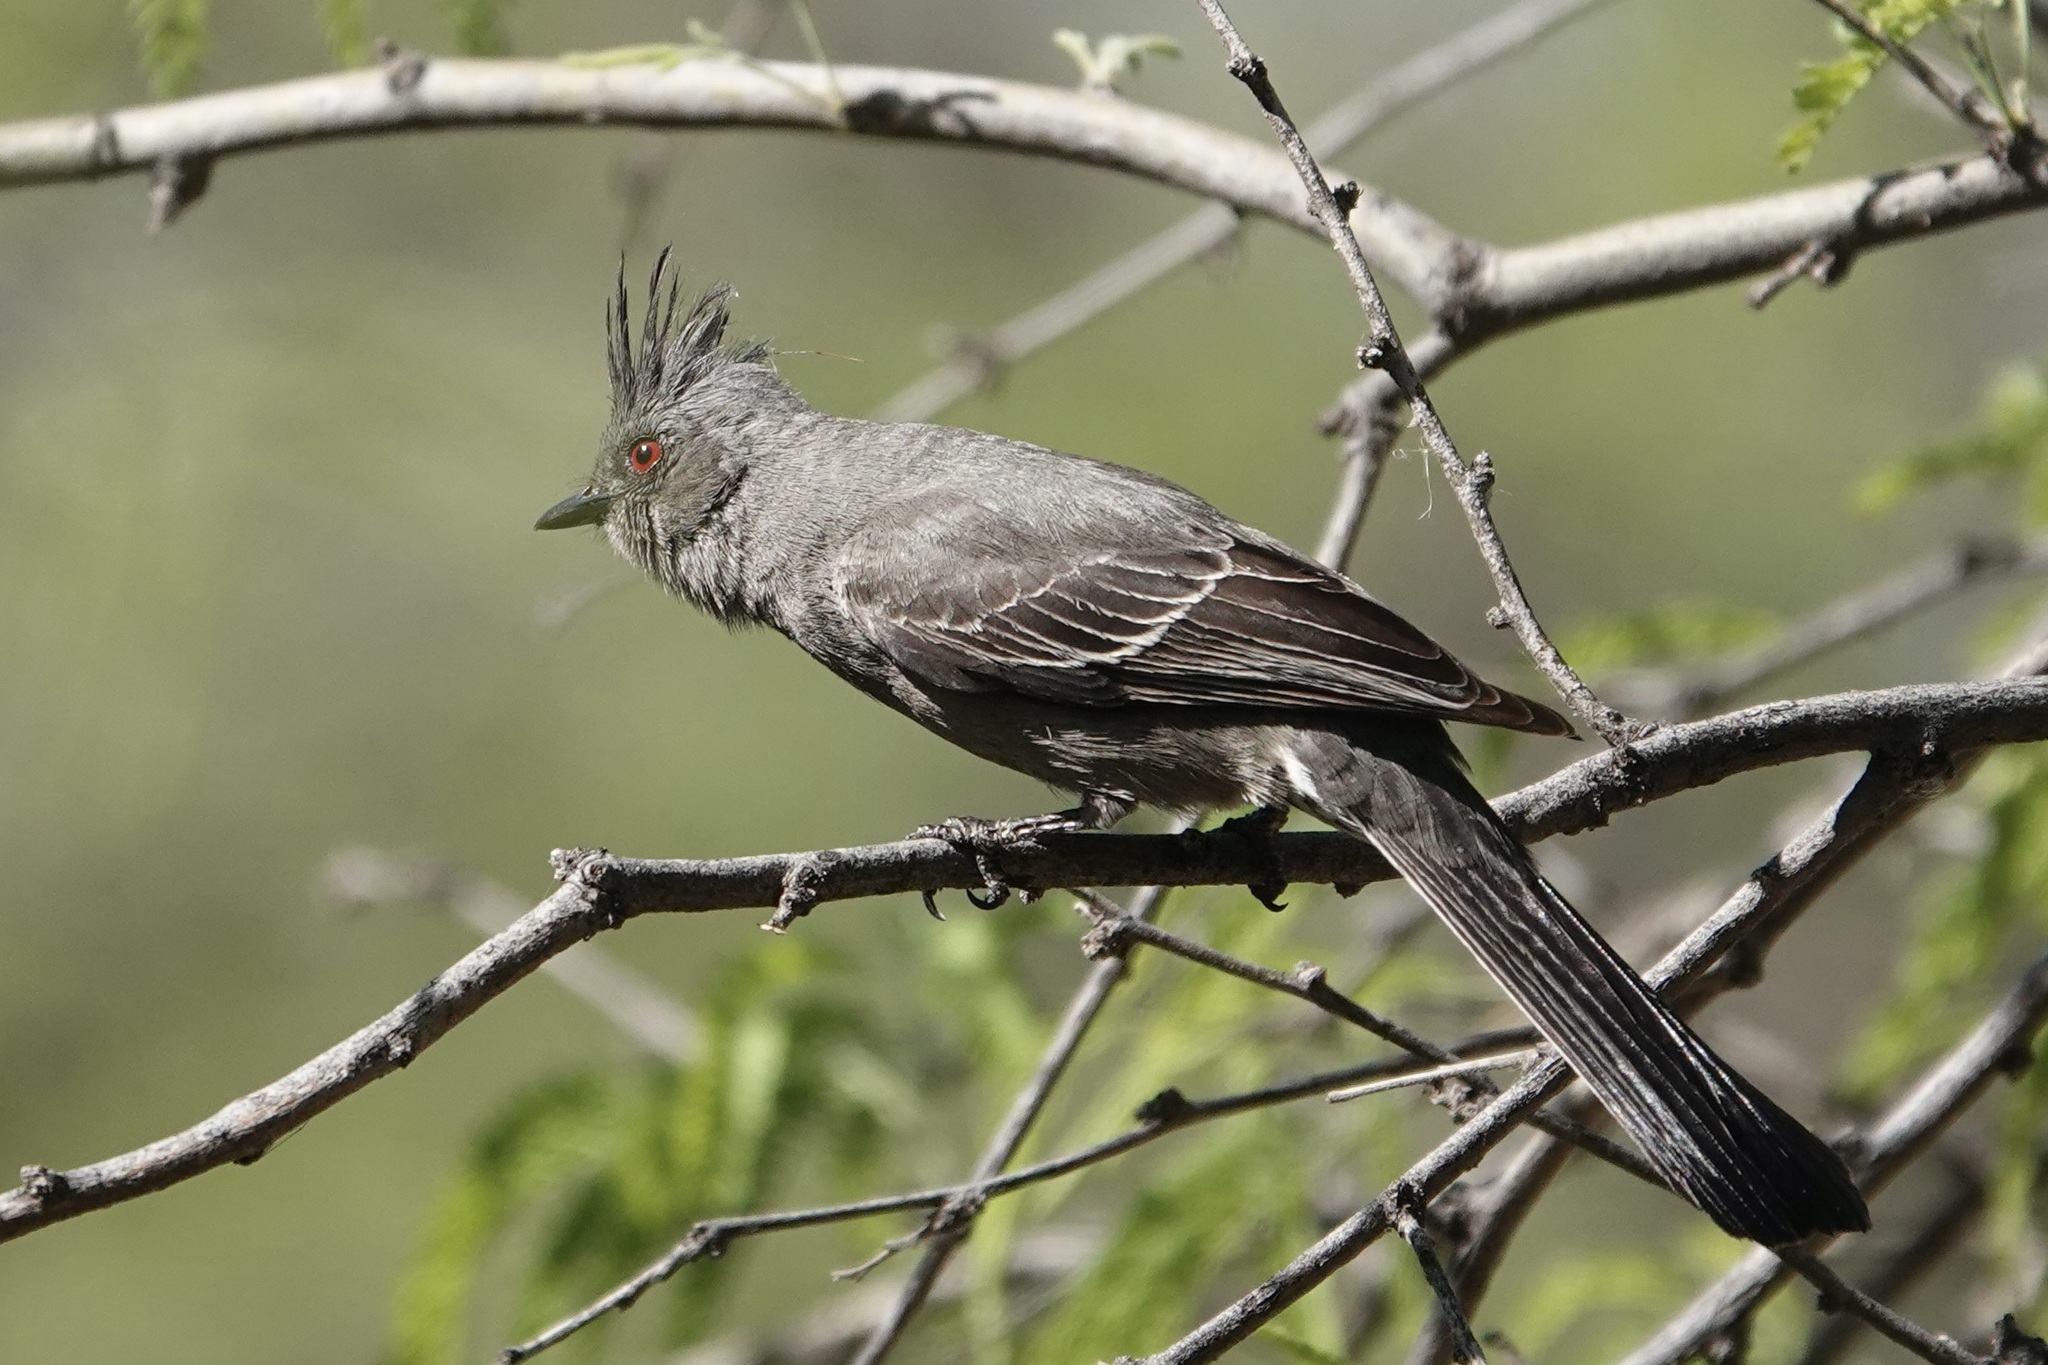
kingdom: Animalia
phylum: Chordata
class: Aves
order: Passeriformes
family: Ptilogonatidae
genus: Phainopepla
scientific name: Phainopepla nitens
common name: Phainopepla
